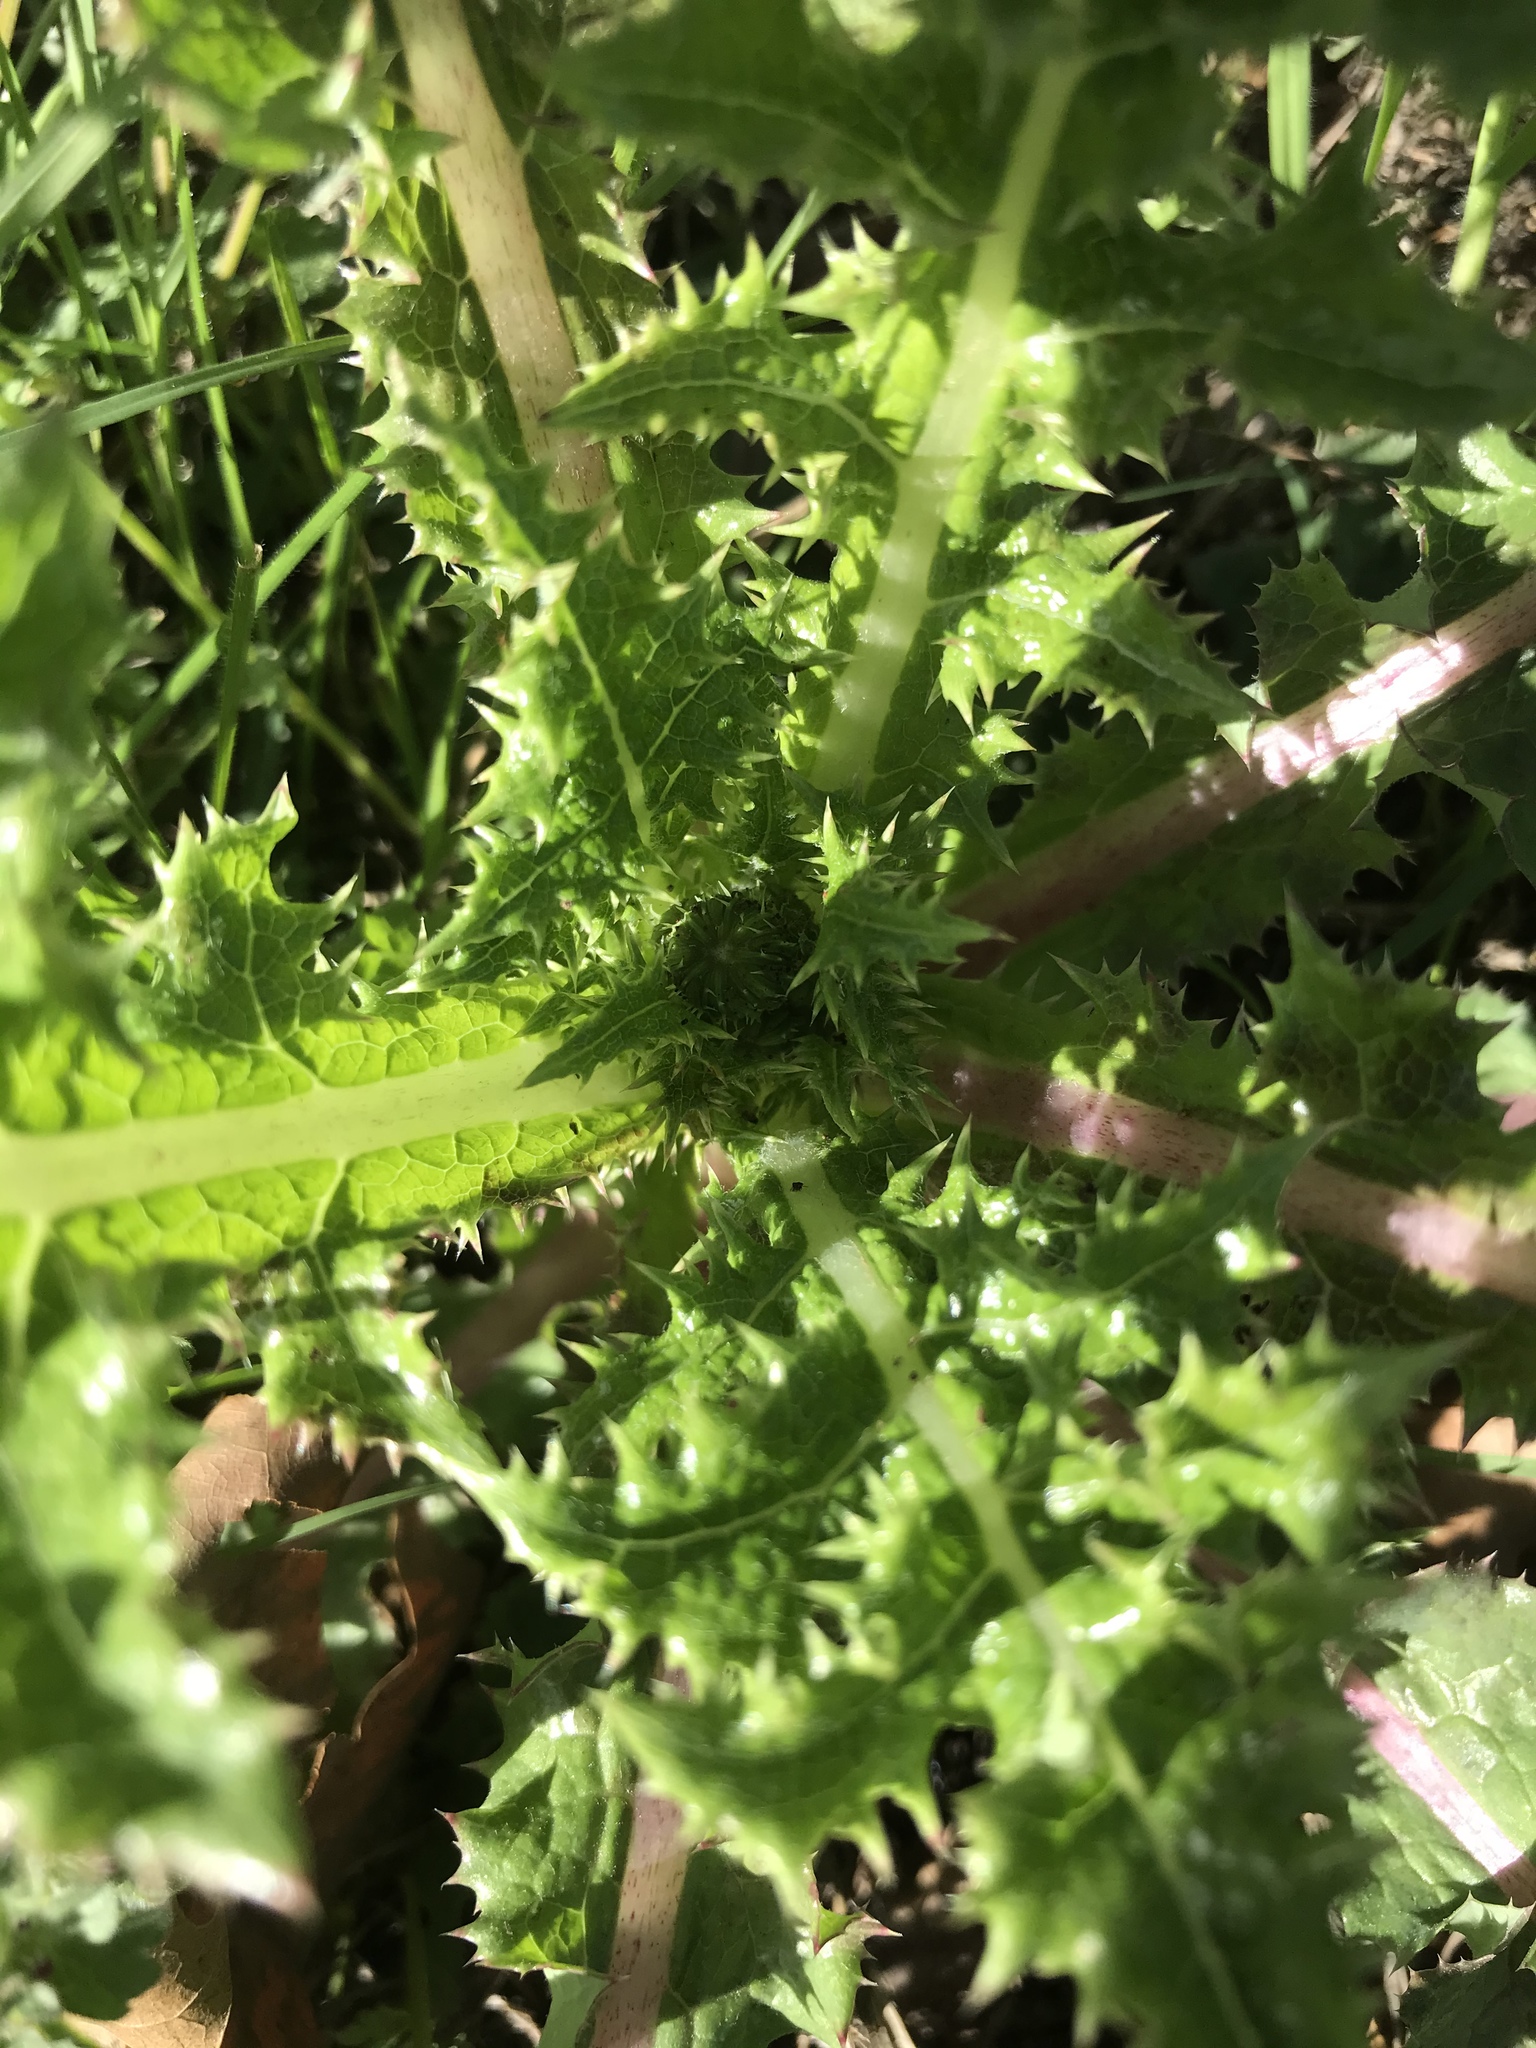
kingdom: Plantae
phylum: Tracheophyta
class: Magnoliopsida
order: Asterales
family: Asteraceae
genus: Sonchus
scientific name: Sonchus asper
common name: Prickly sow-thistle
